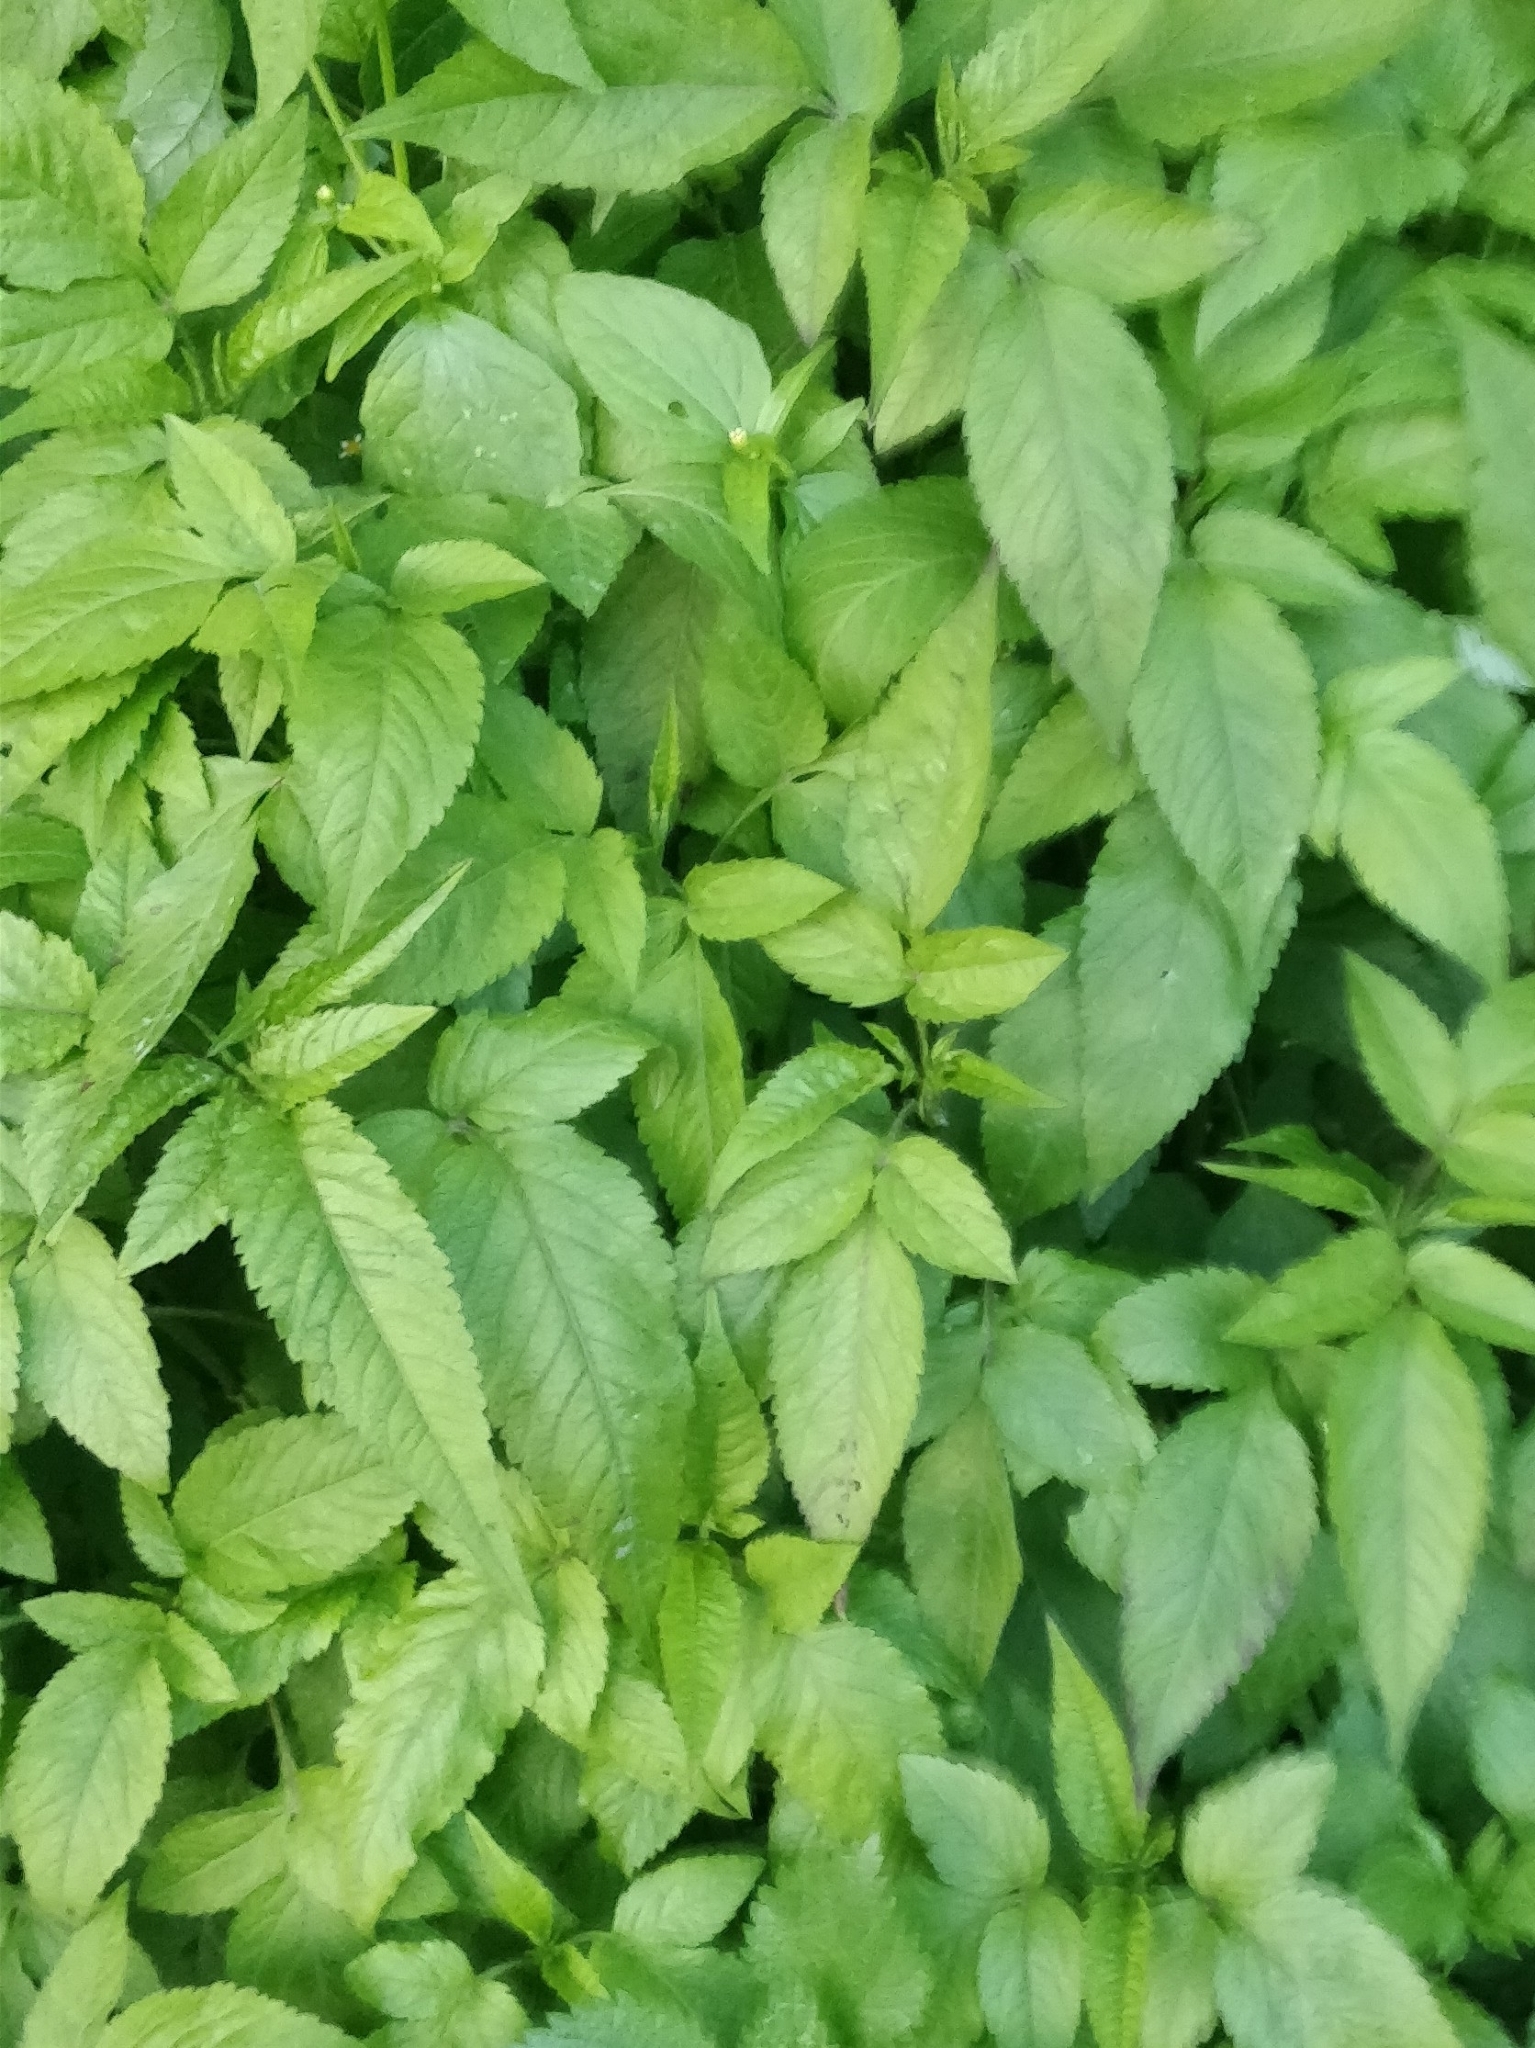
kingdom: Plantae
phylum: Tracheophyta
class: Magnoliopsida
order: Asterales
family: Asteraceae
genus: Bidens
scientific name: Bidens pilosa
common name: Black-jack
